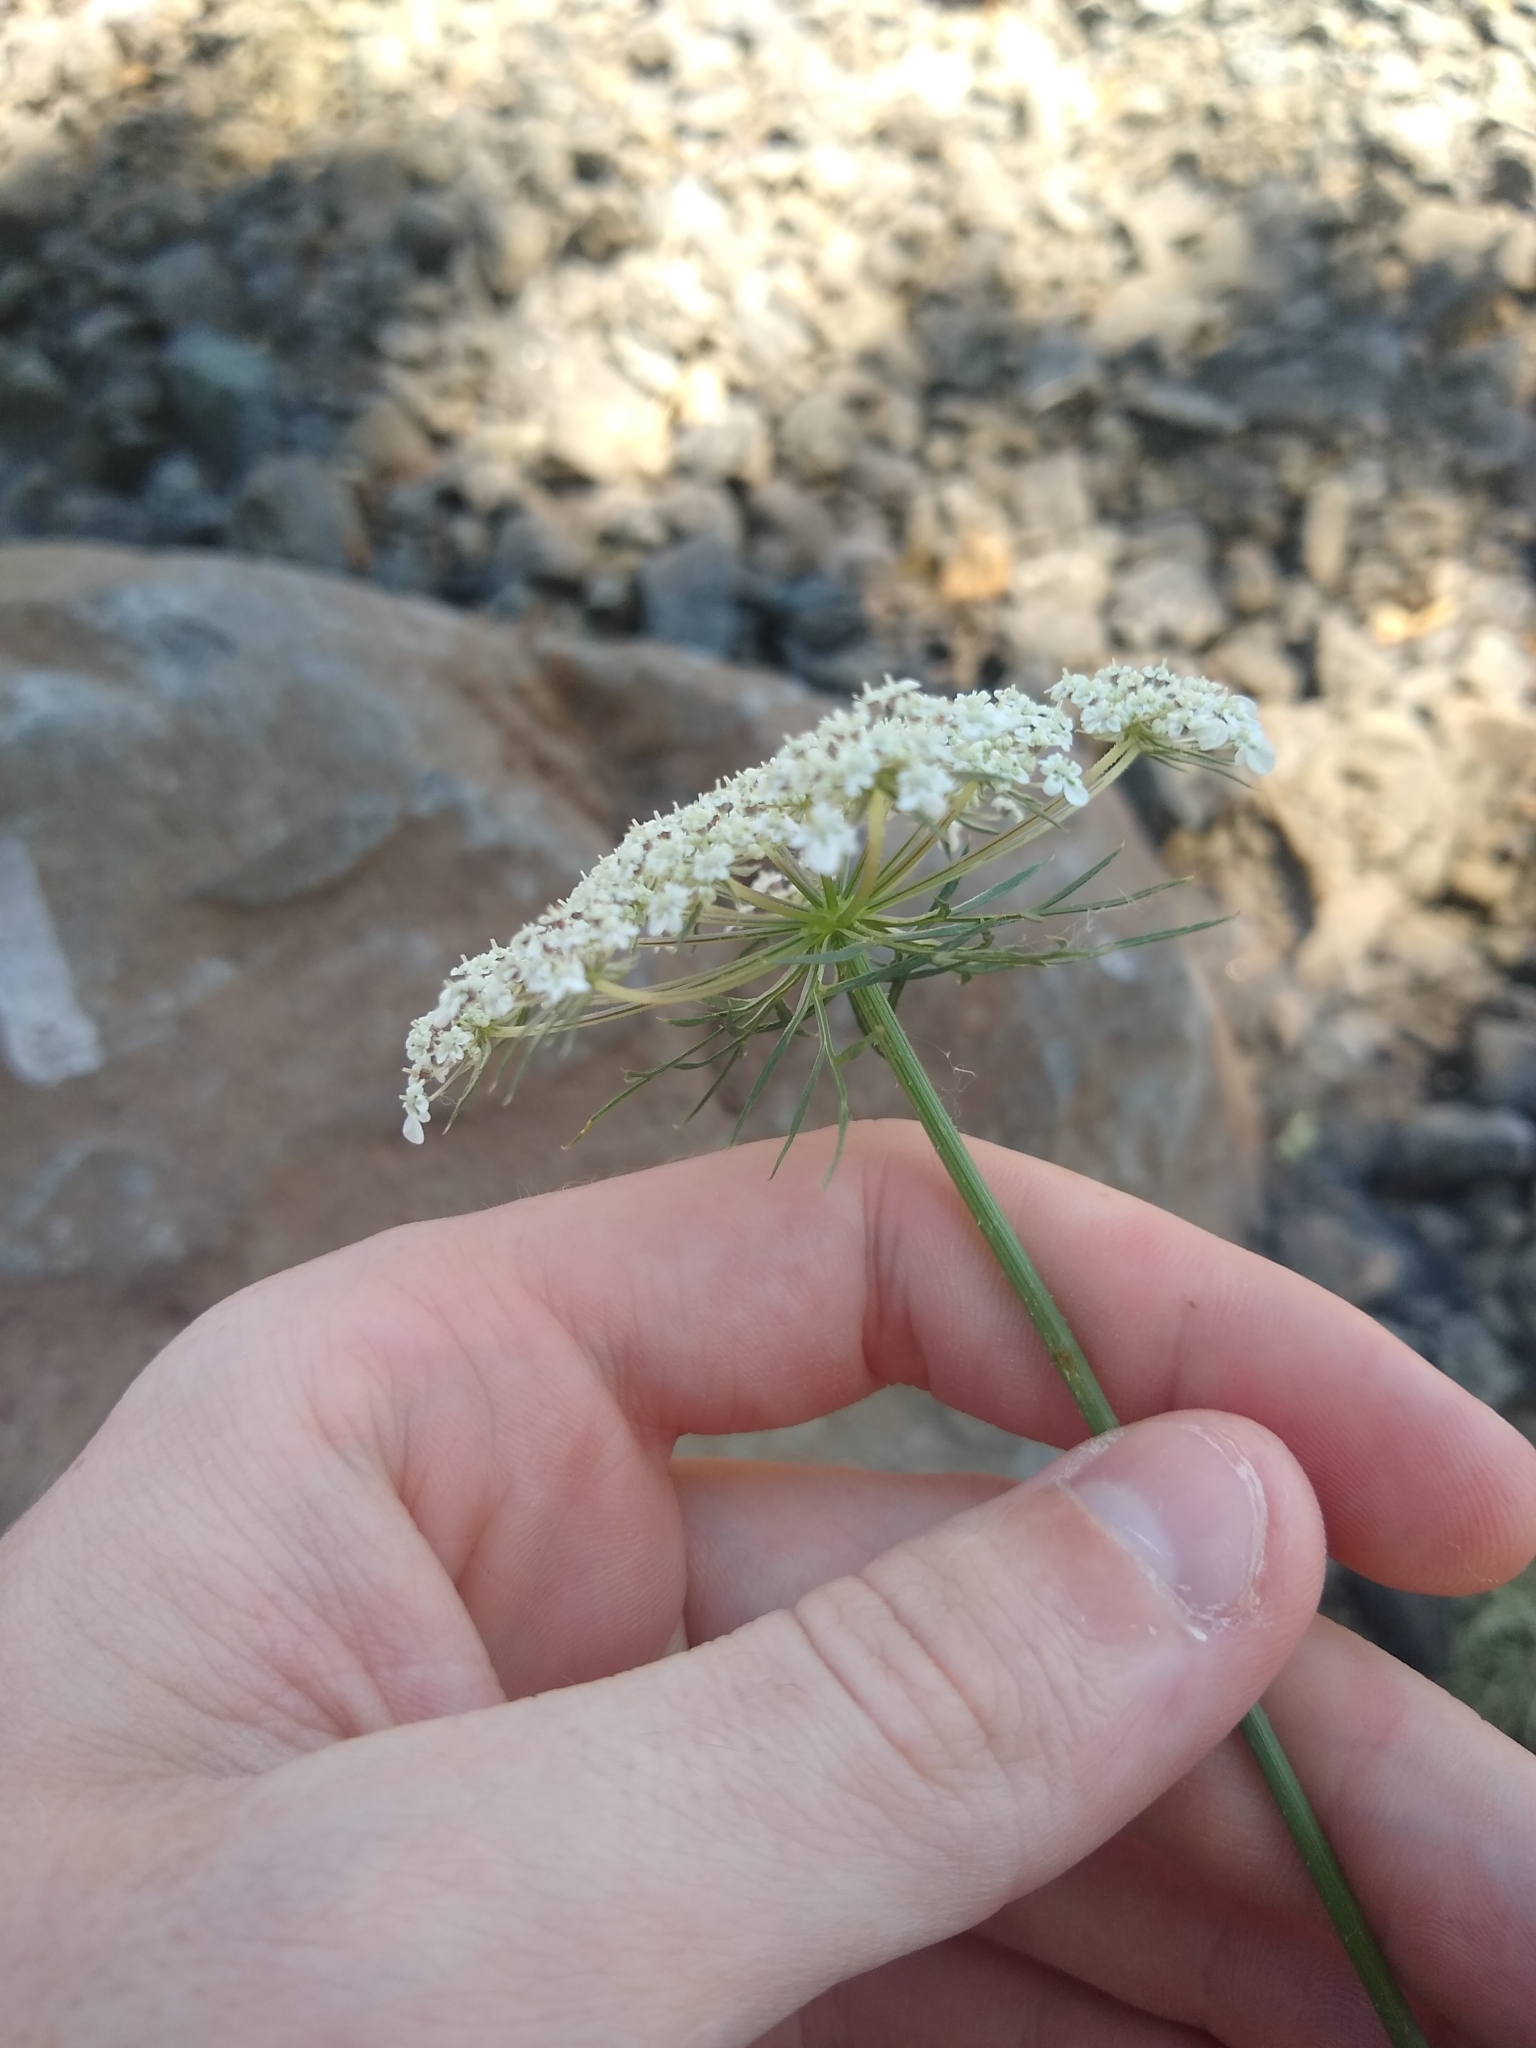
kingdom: Plantae
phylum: Tracheophyta
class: Magnoliopsida
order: Apiales
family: Apiaceae
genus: Daucus
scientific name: Daucus carota
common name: Wild carrot
